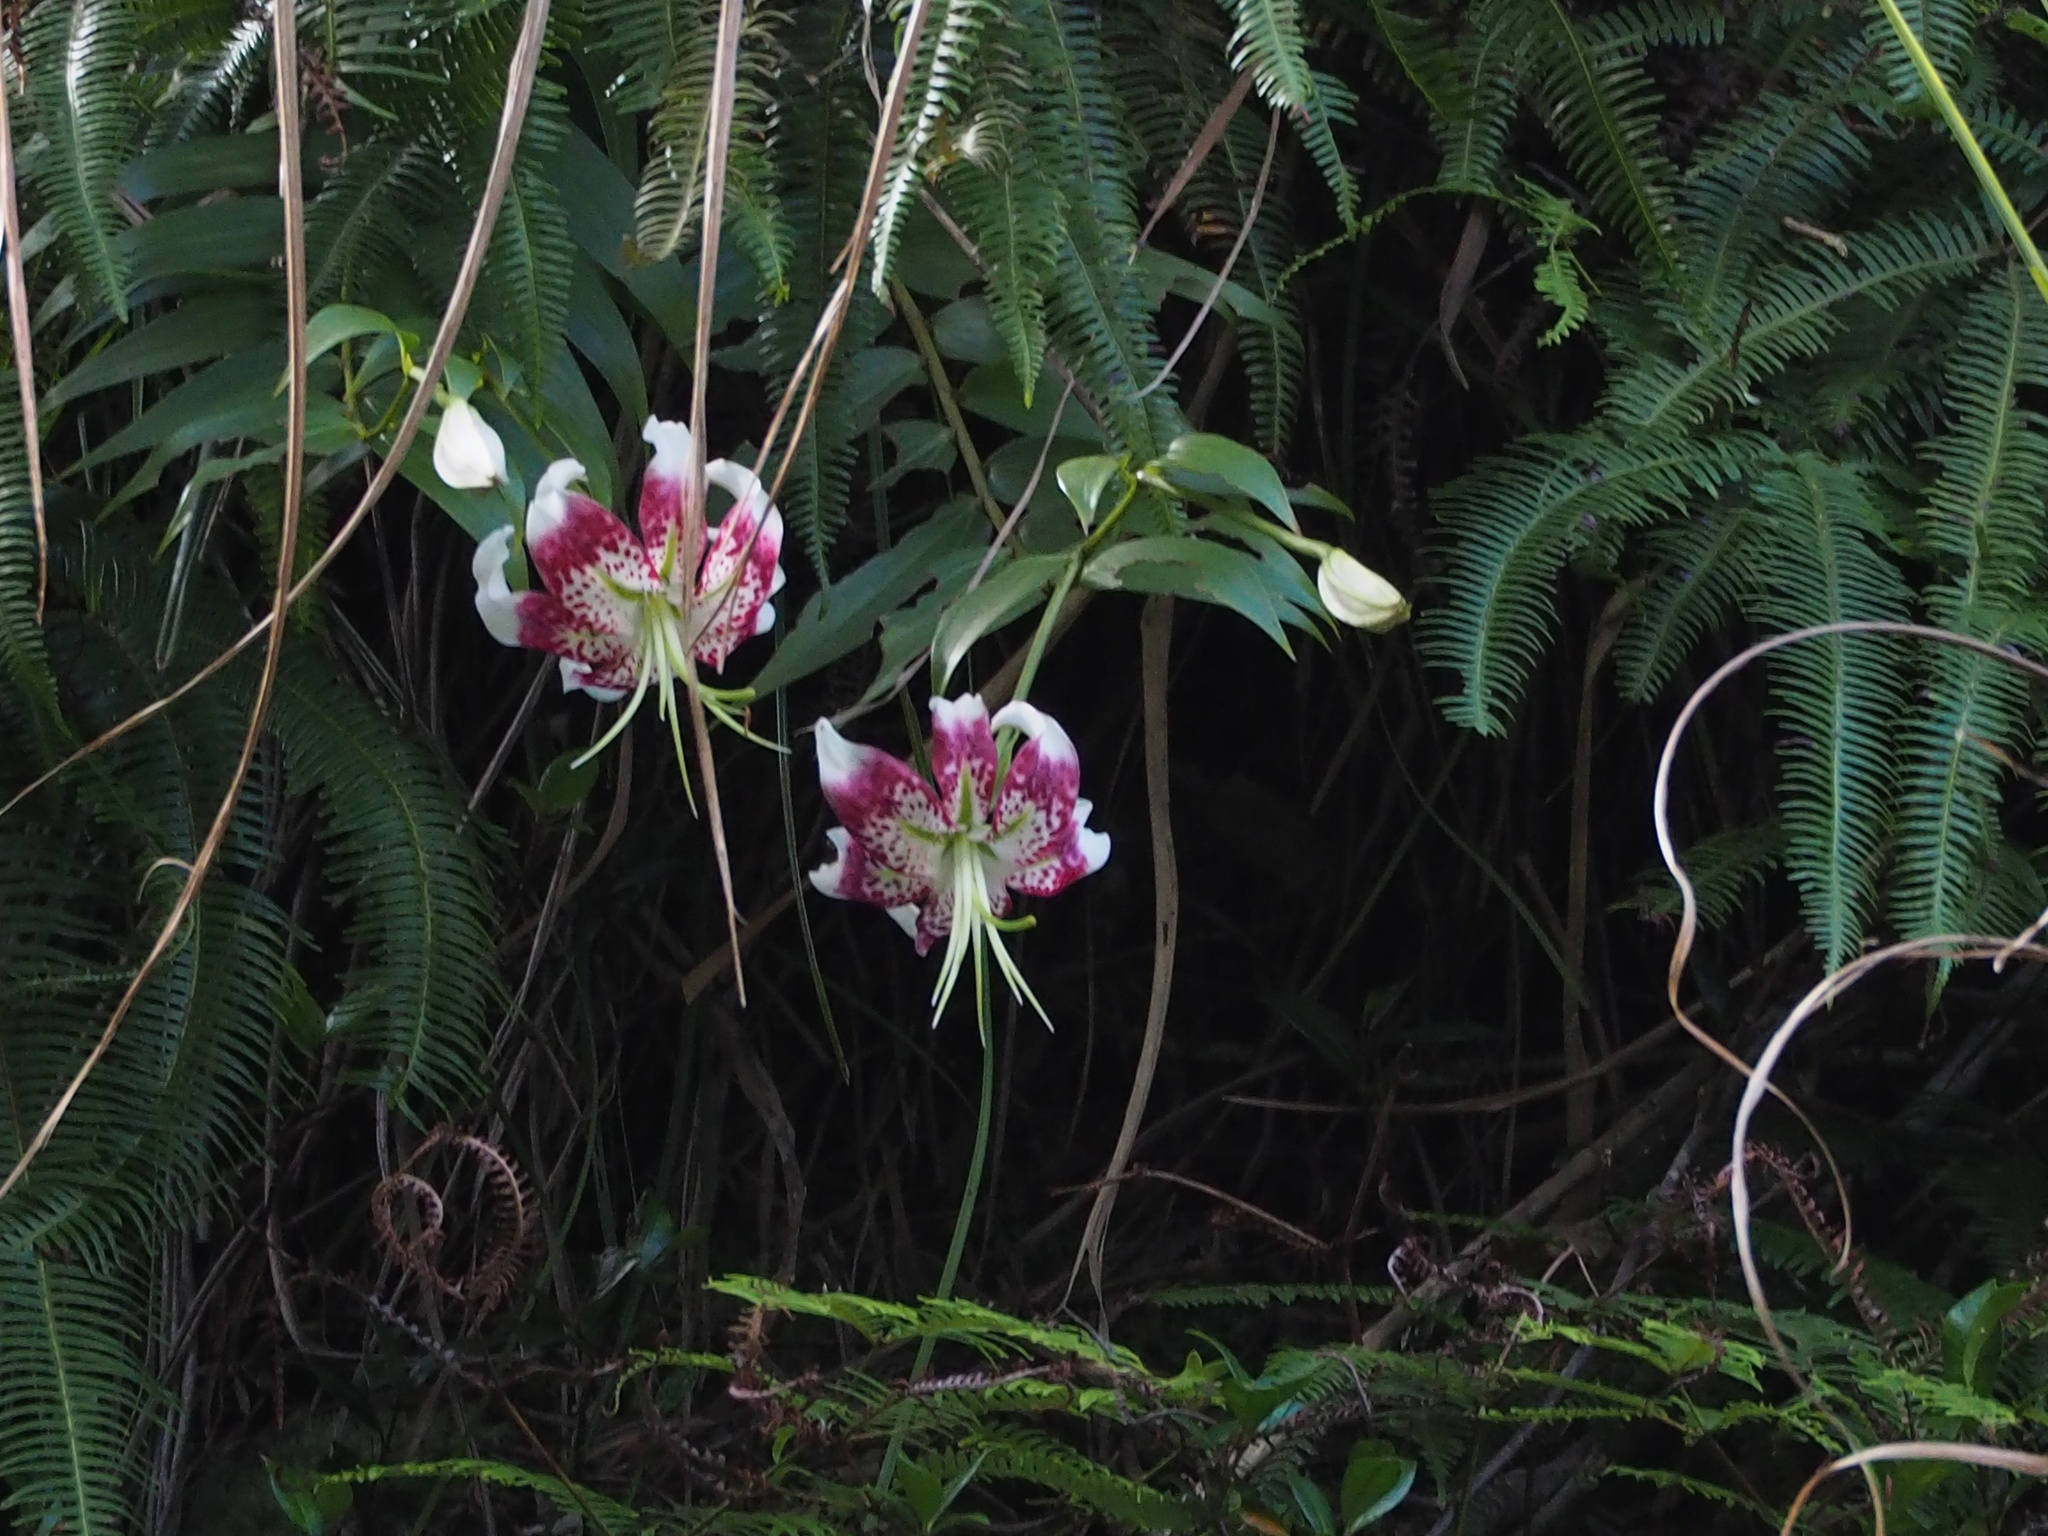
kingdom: Plantae
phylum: Tracheophyta
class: Liliopsida
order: Liliales
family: Liliaceae
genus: Lilium
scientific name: Lilium speciosum
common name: Japanese lily
